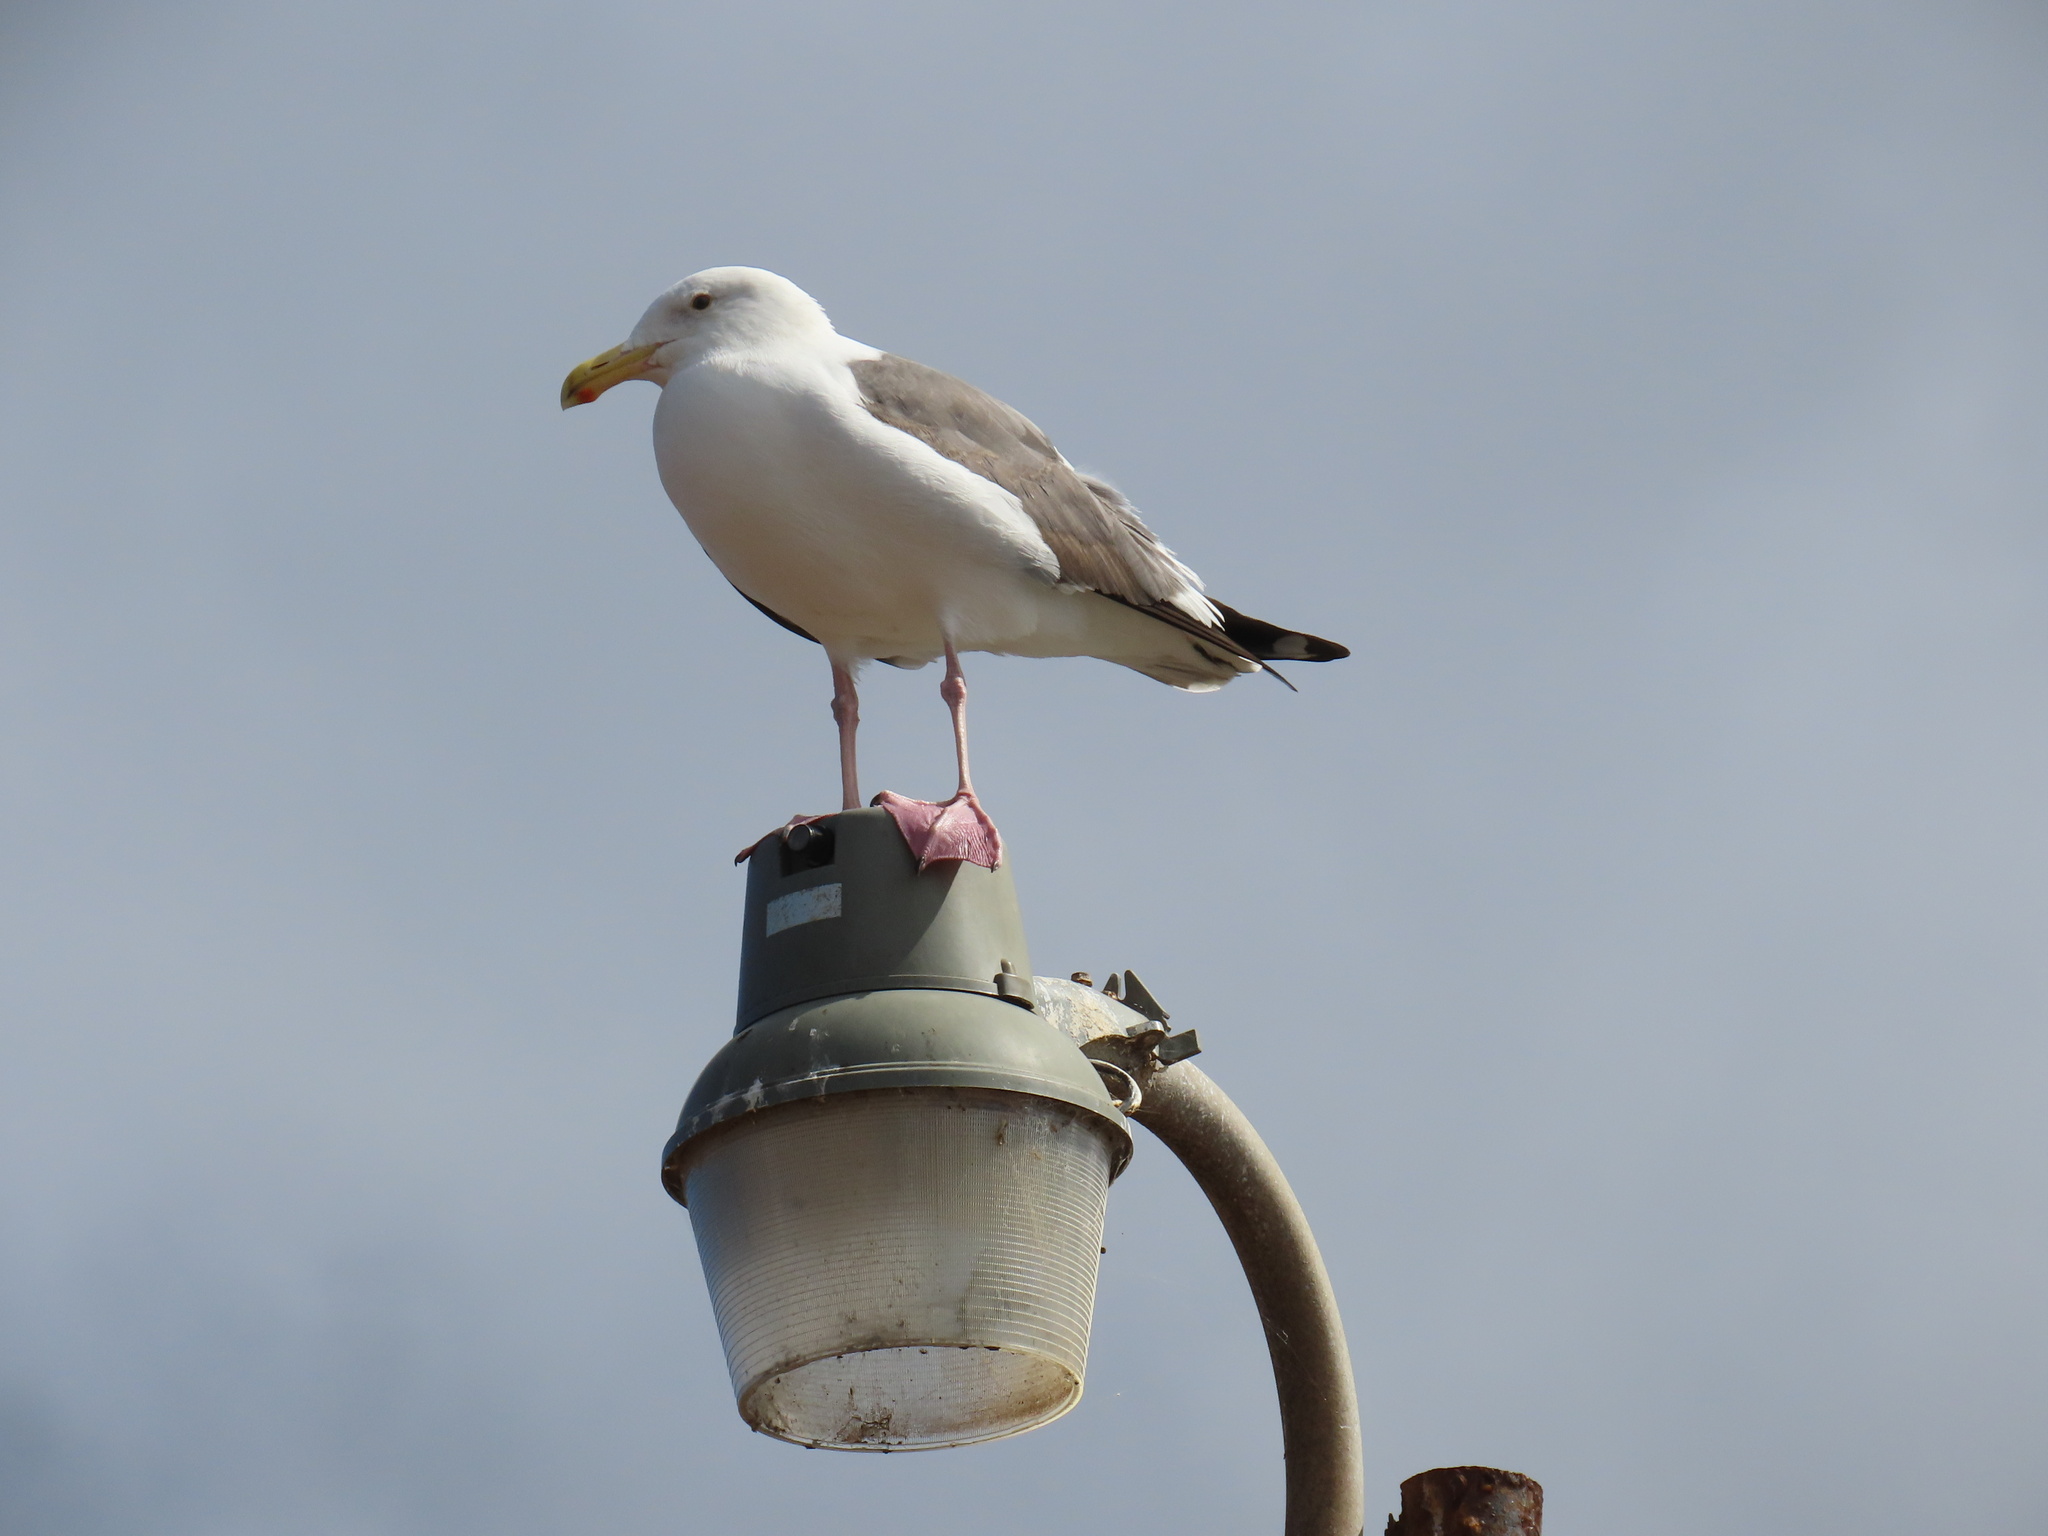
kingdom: Animalia
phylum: Chordata
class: Aves
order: Charadriiformes
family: Laridae
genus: Larus
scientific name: Larus occidentalis
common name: Western gull
